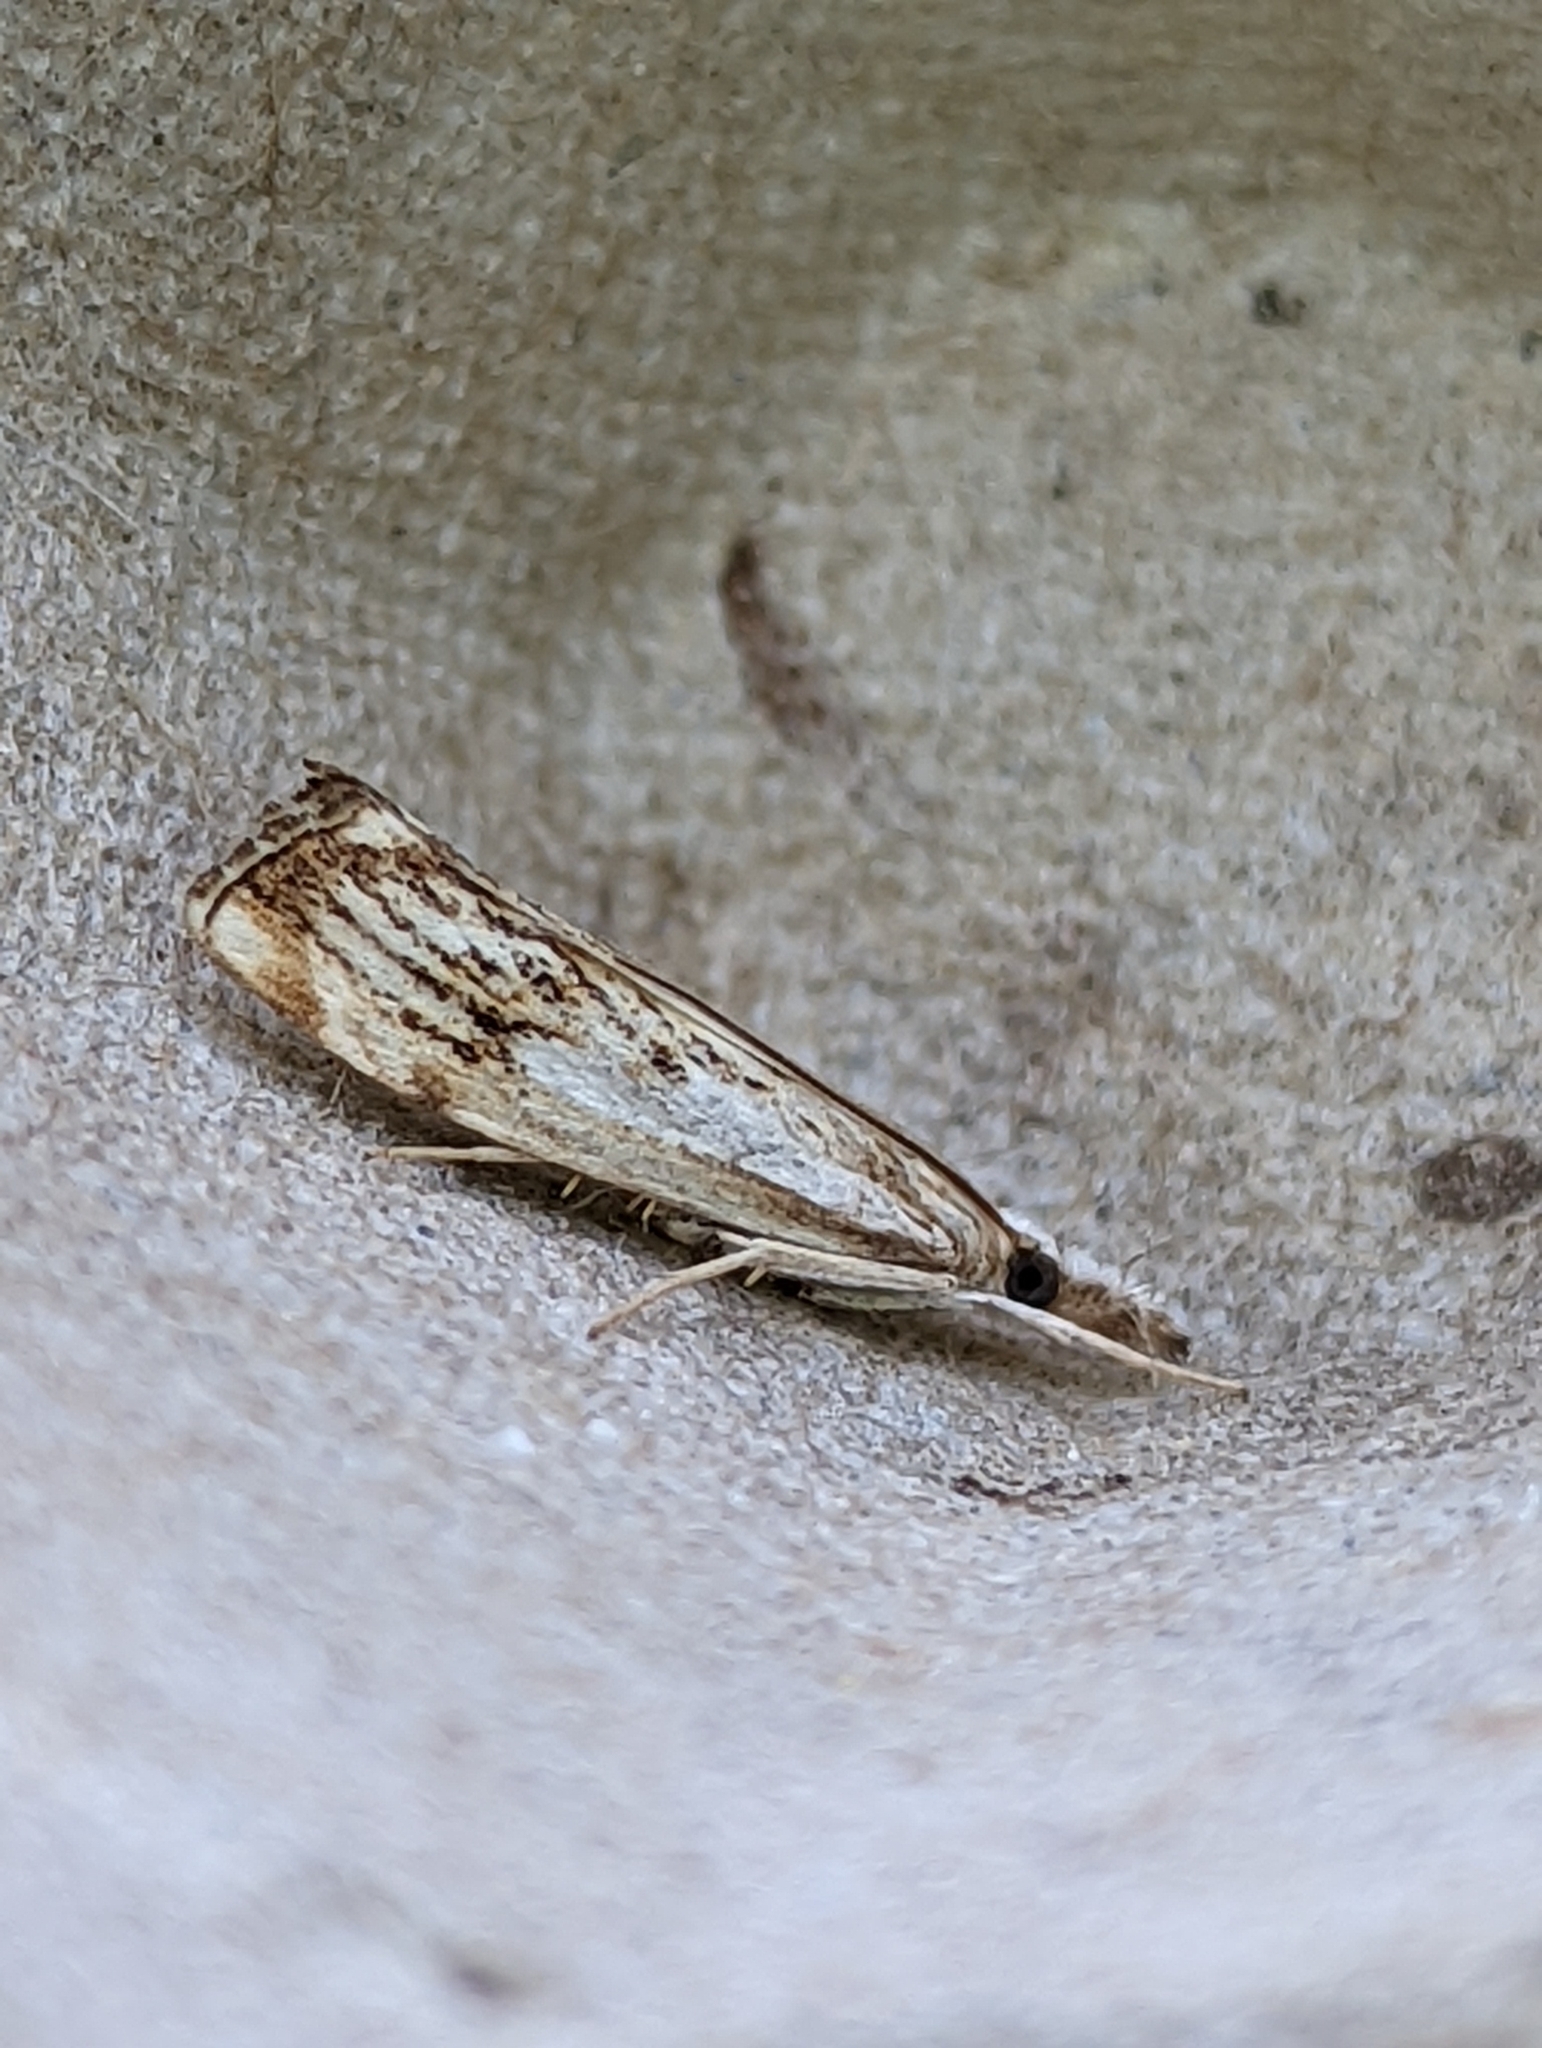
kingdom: Animalia
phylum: Arthropoda
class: Insecta
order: Lepidoptera
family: Crambidae
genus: Catoptria
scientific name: Catoptria falsella
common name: Chequered grass-veneer
